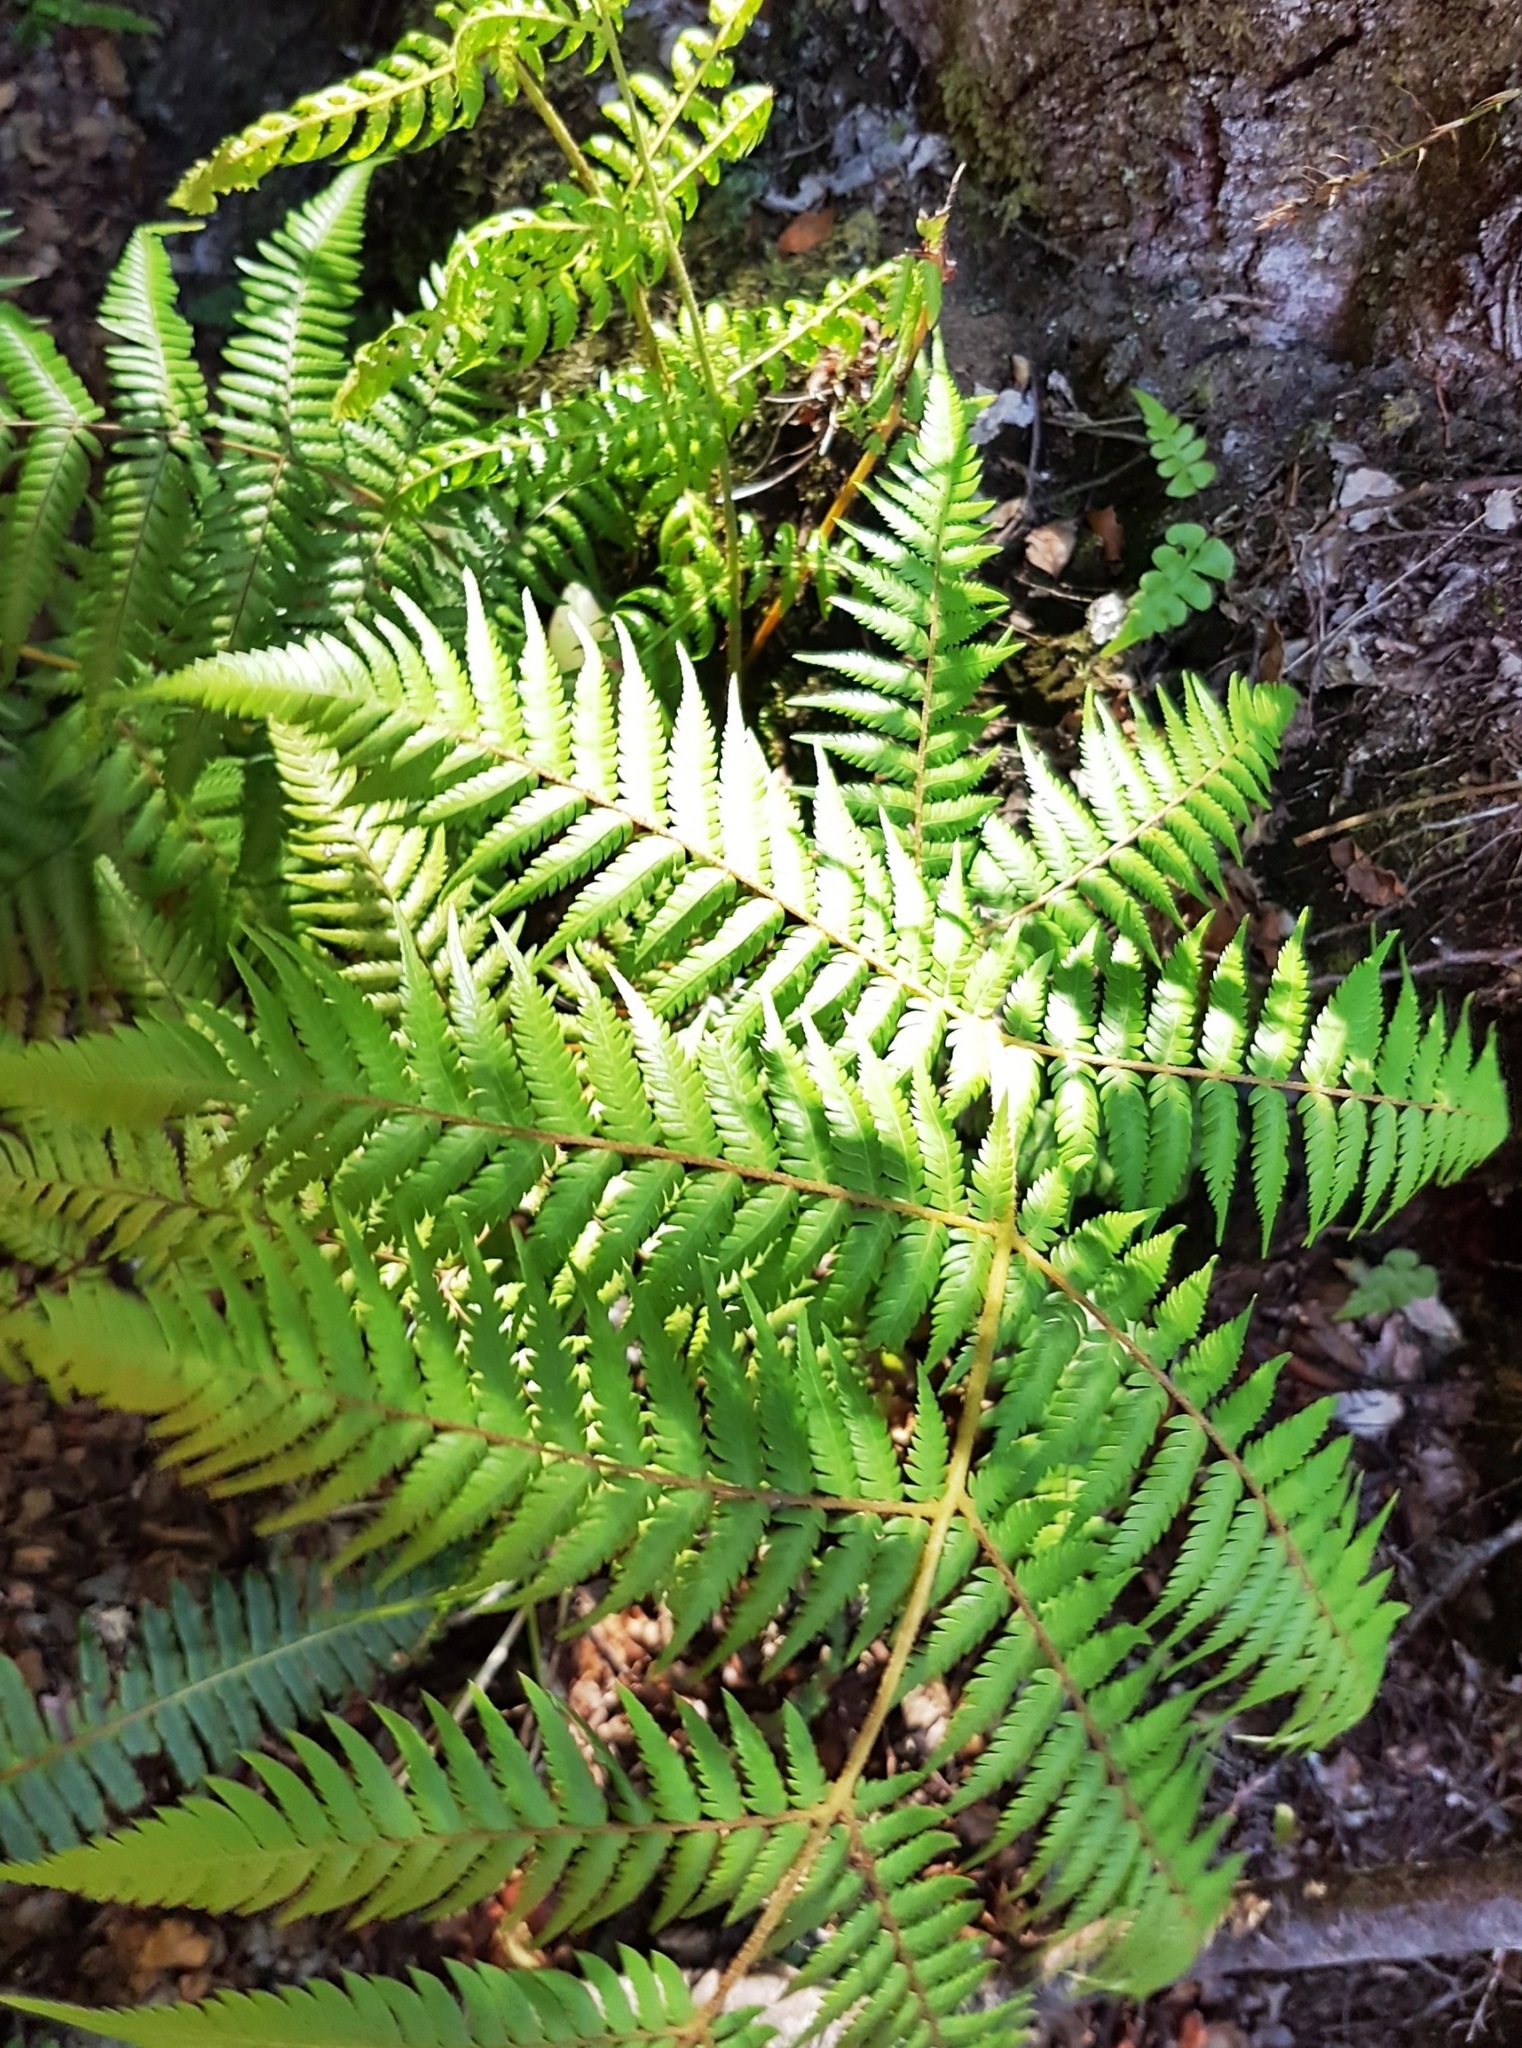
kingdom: Plantae
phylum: Tracheophyta
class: Polypodiopsida
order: Cyatheales
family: Cyatheaceae
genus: Alsophila
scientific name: Alsophila dealbata
